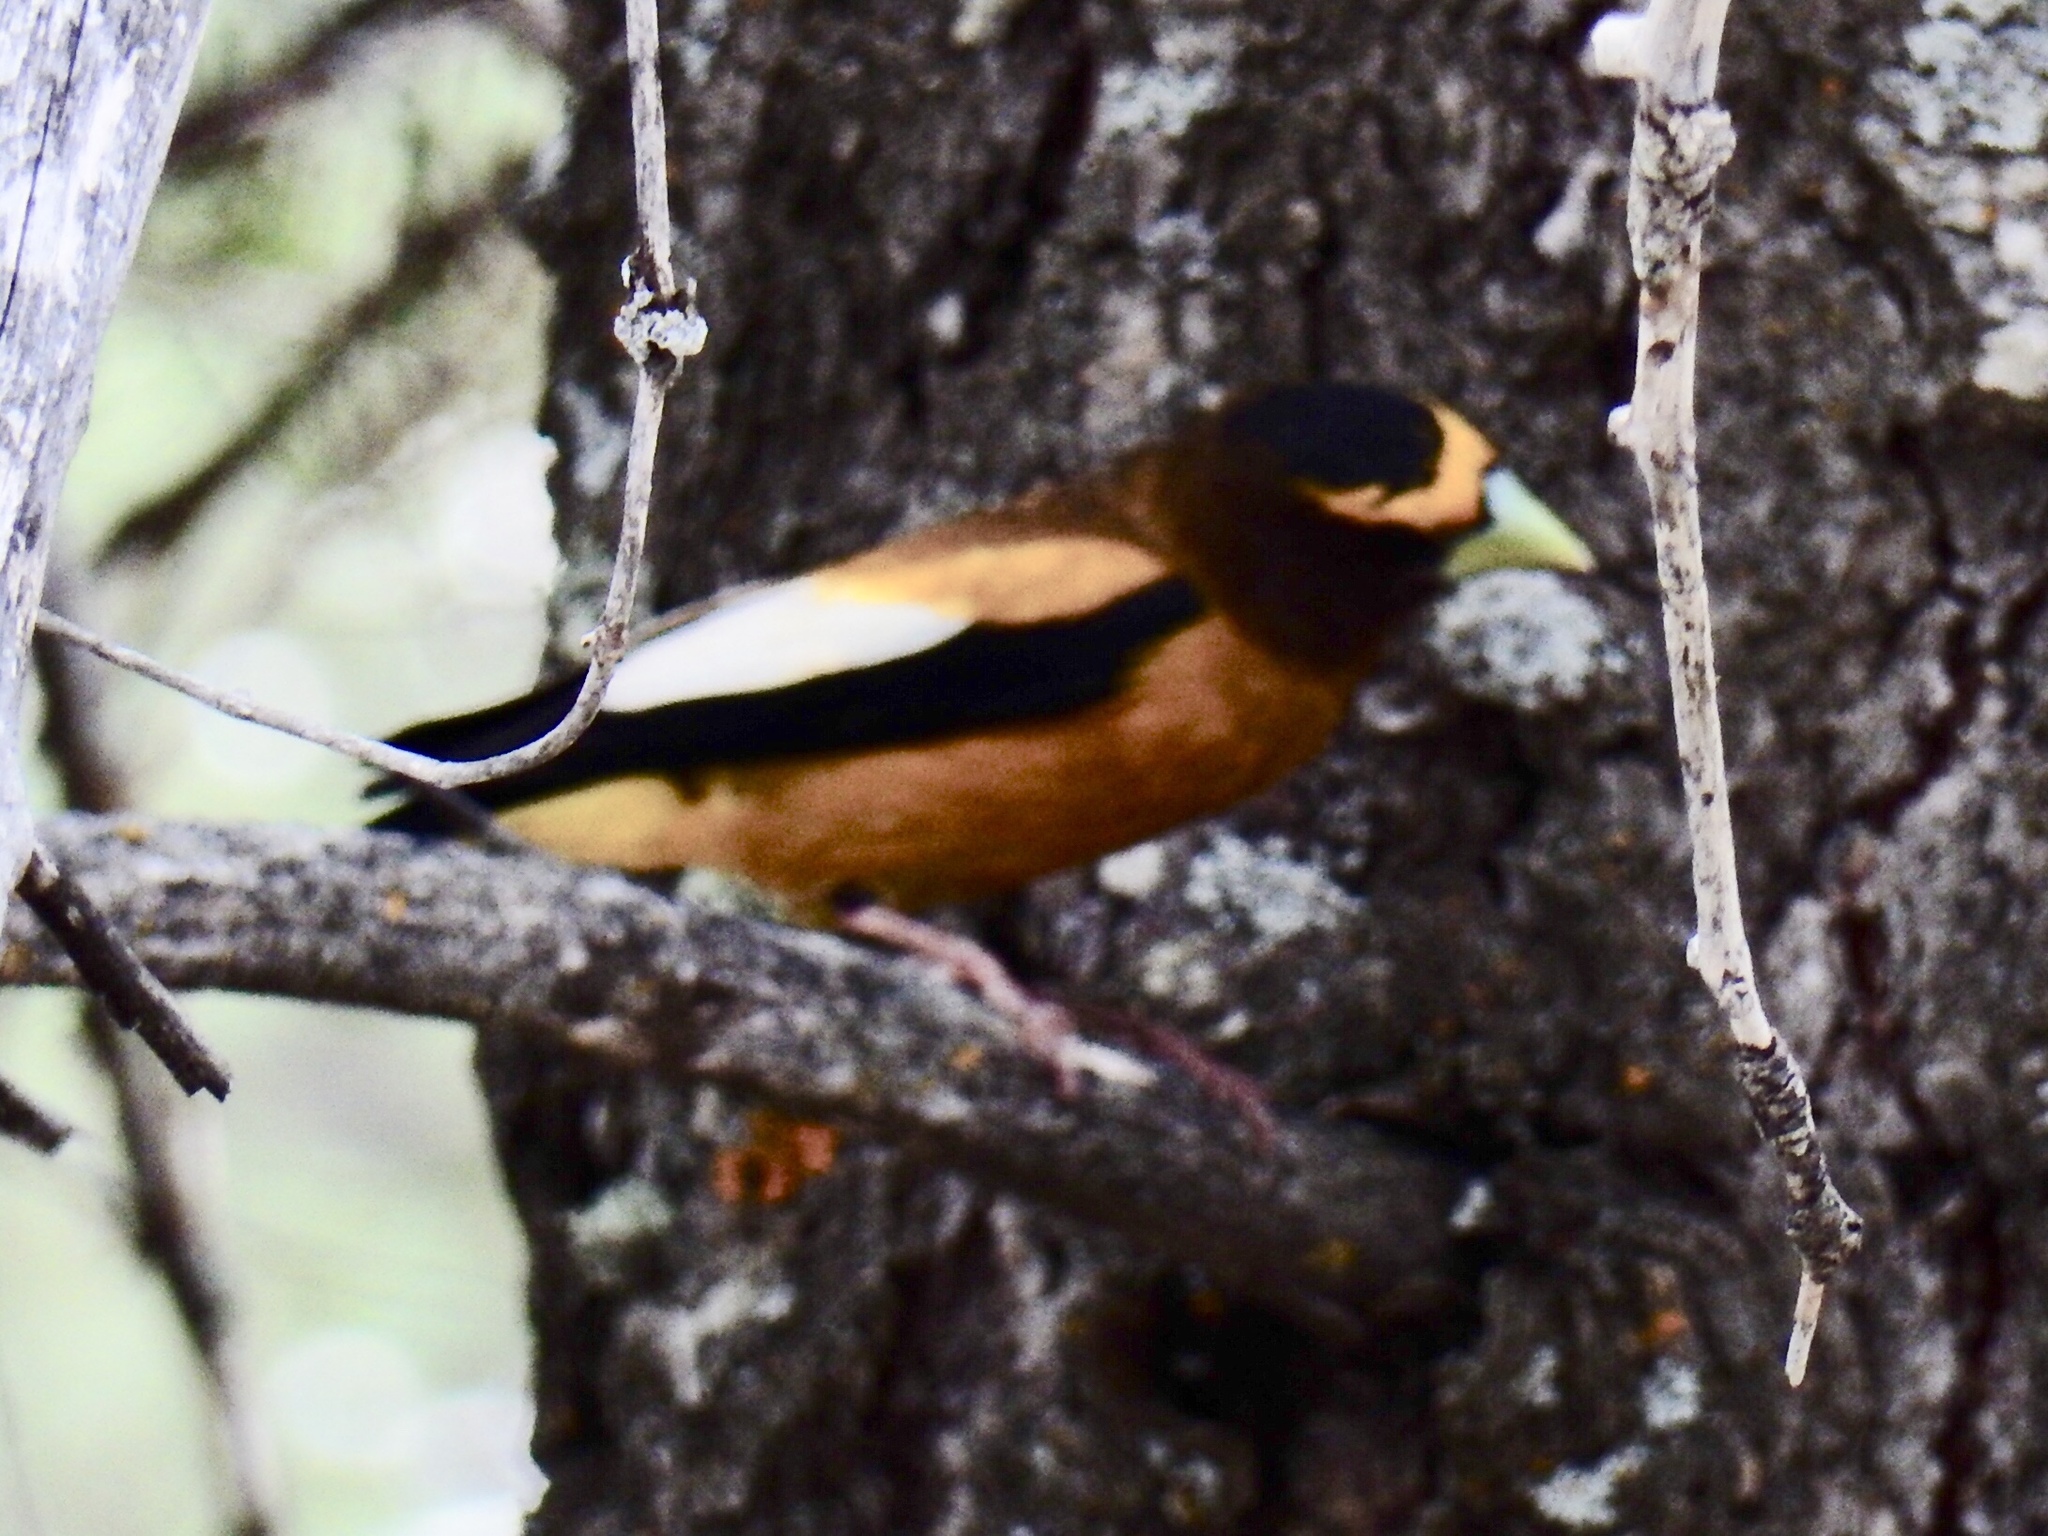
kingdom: Animalia
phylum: Chordata
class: Aves
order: Passeriformes
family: Fringillidae
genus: Hesperiphona
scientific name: Hesperiphona vespertina
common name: Evening grosbeak
